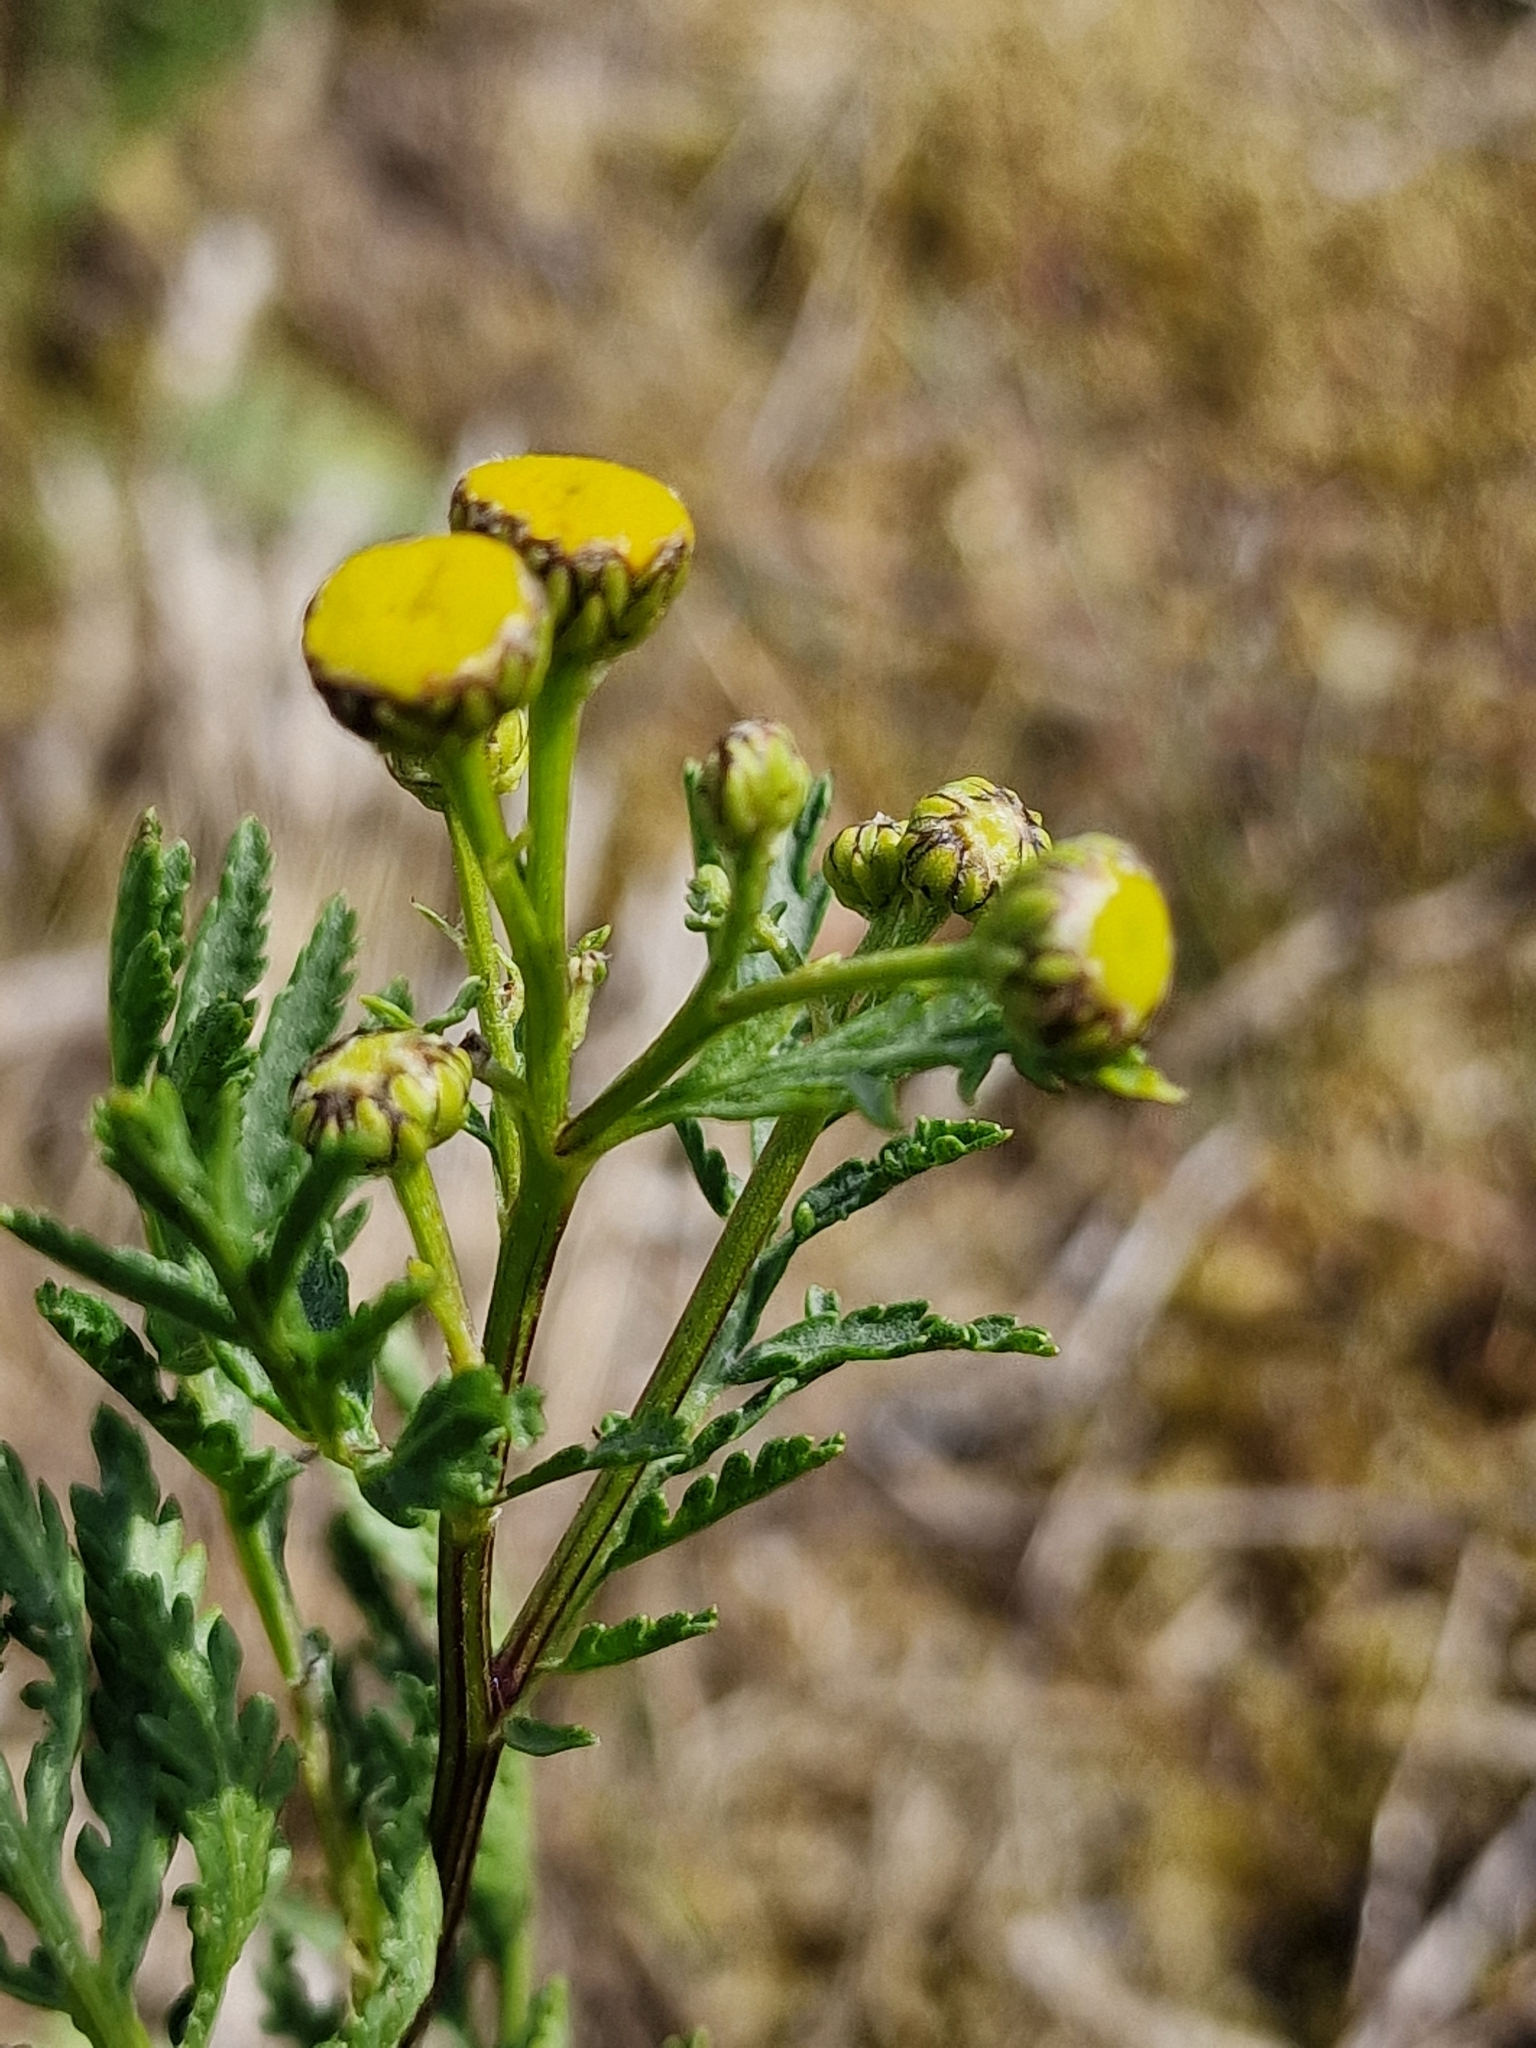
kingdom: Plantae
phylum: Tracheophyta
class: Magnoliopsida
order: Asterales
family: Asteraceae
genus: Tanacetum
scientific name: Tanacetum vulgare
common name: Common tansy
